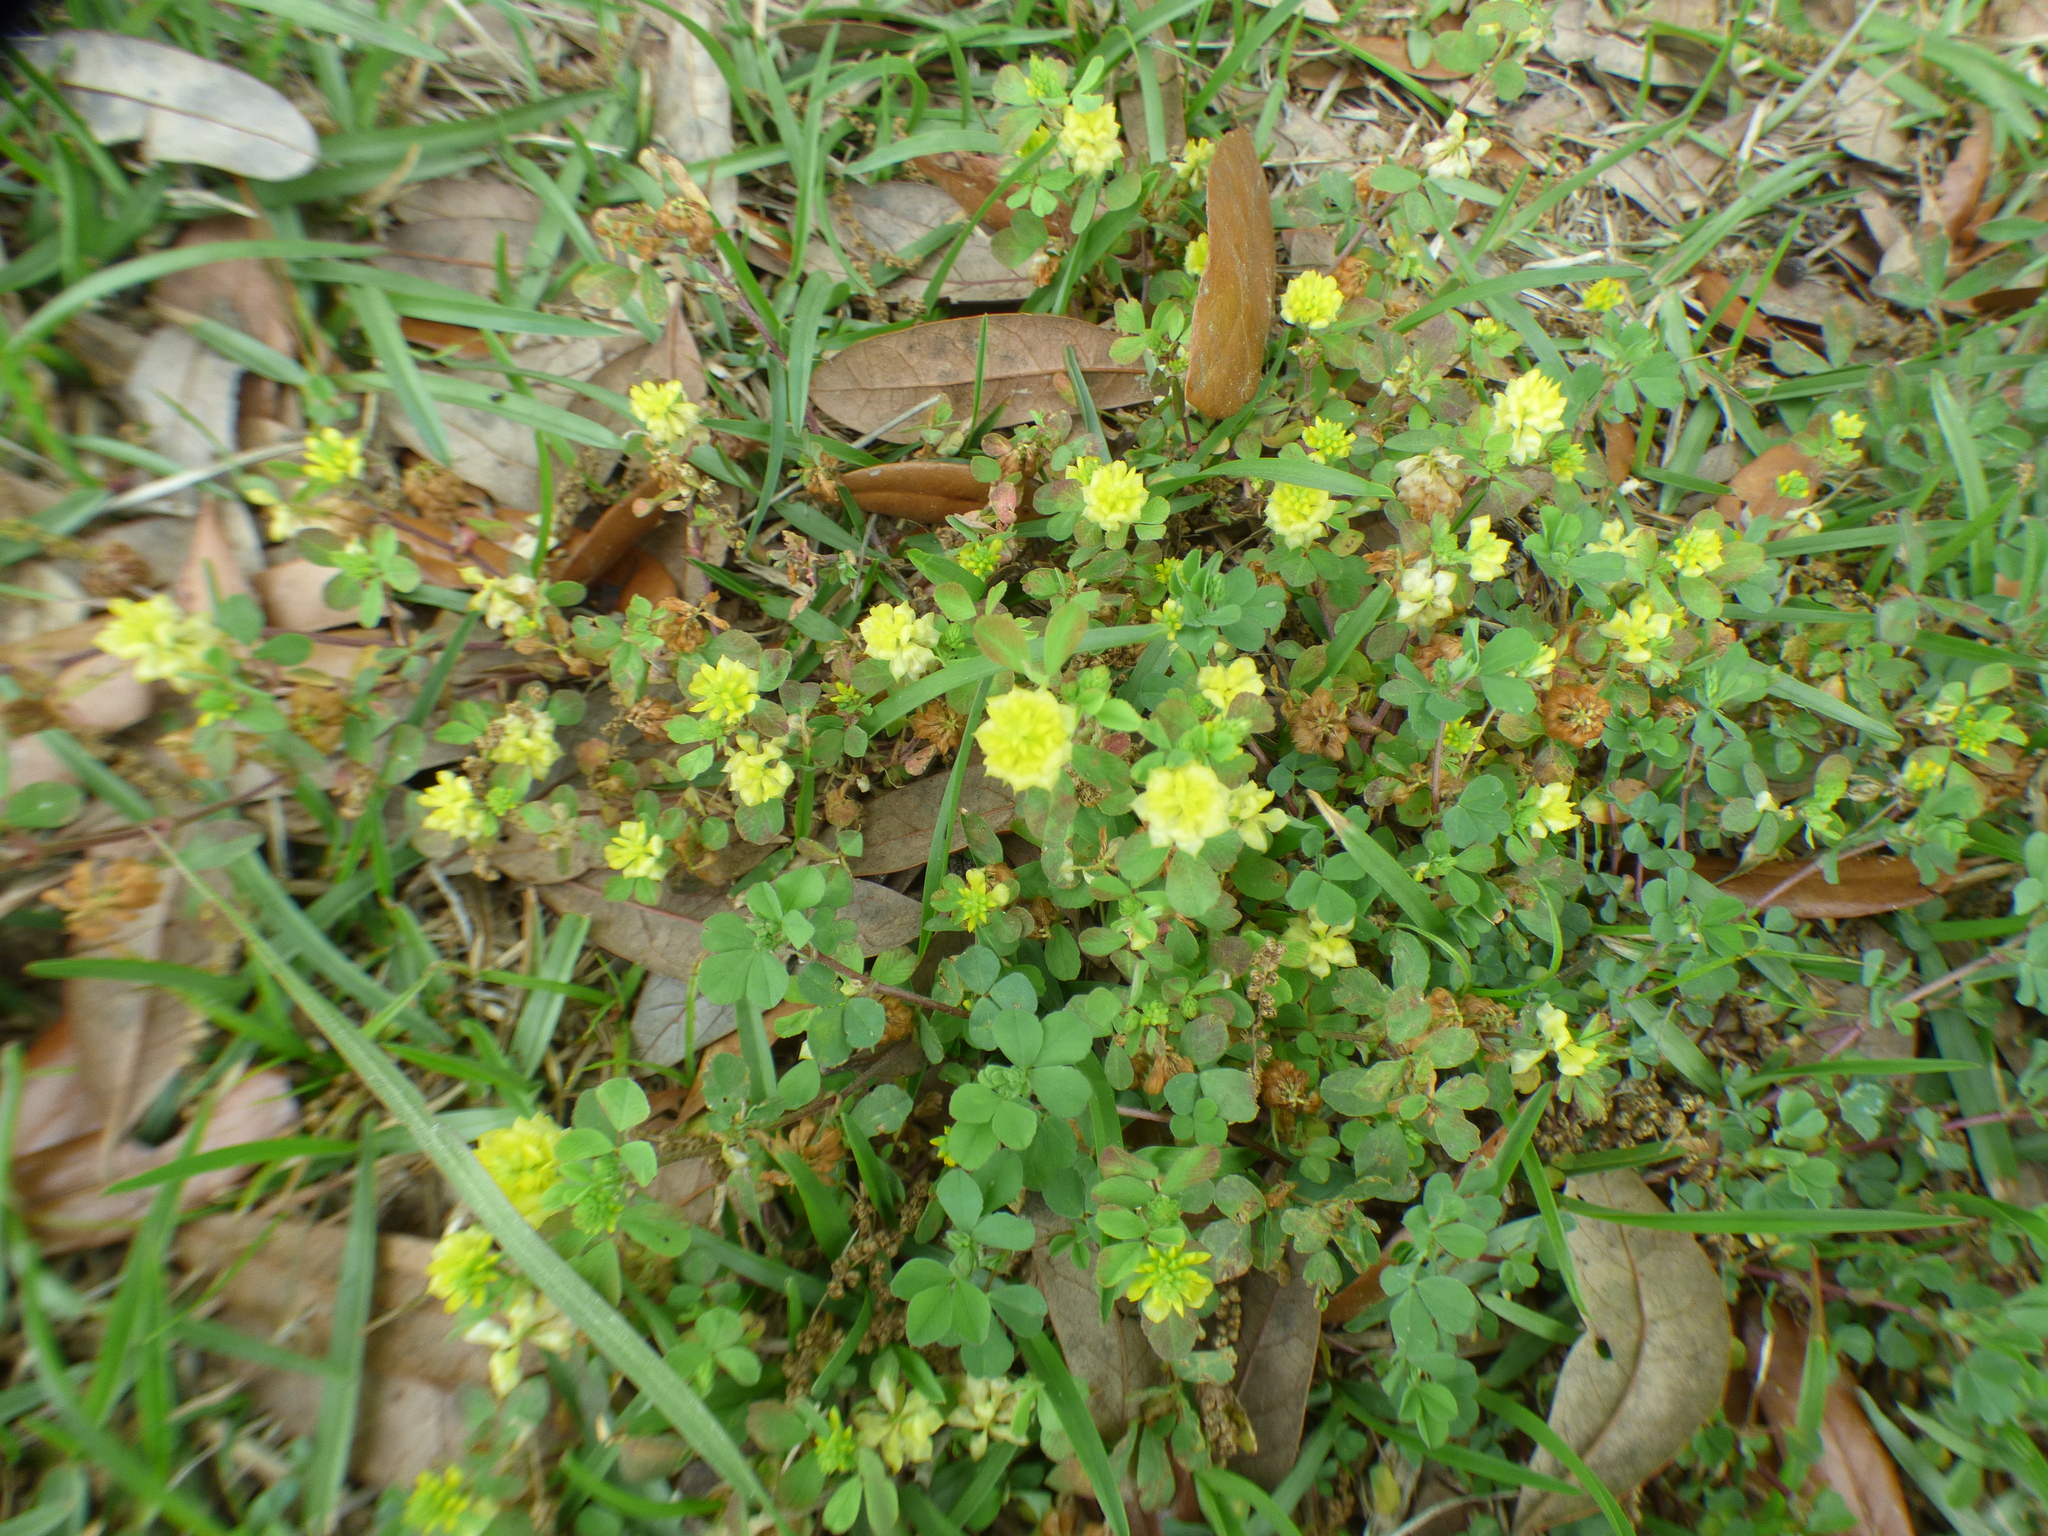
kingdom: Plantae
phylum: Tracheophyta
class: Magnoliopsida
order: Fabales
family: Fabaceae
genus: Trifolium
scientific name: Trifolium campestre
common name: Field clover
